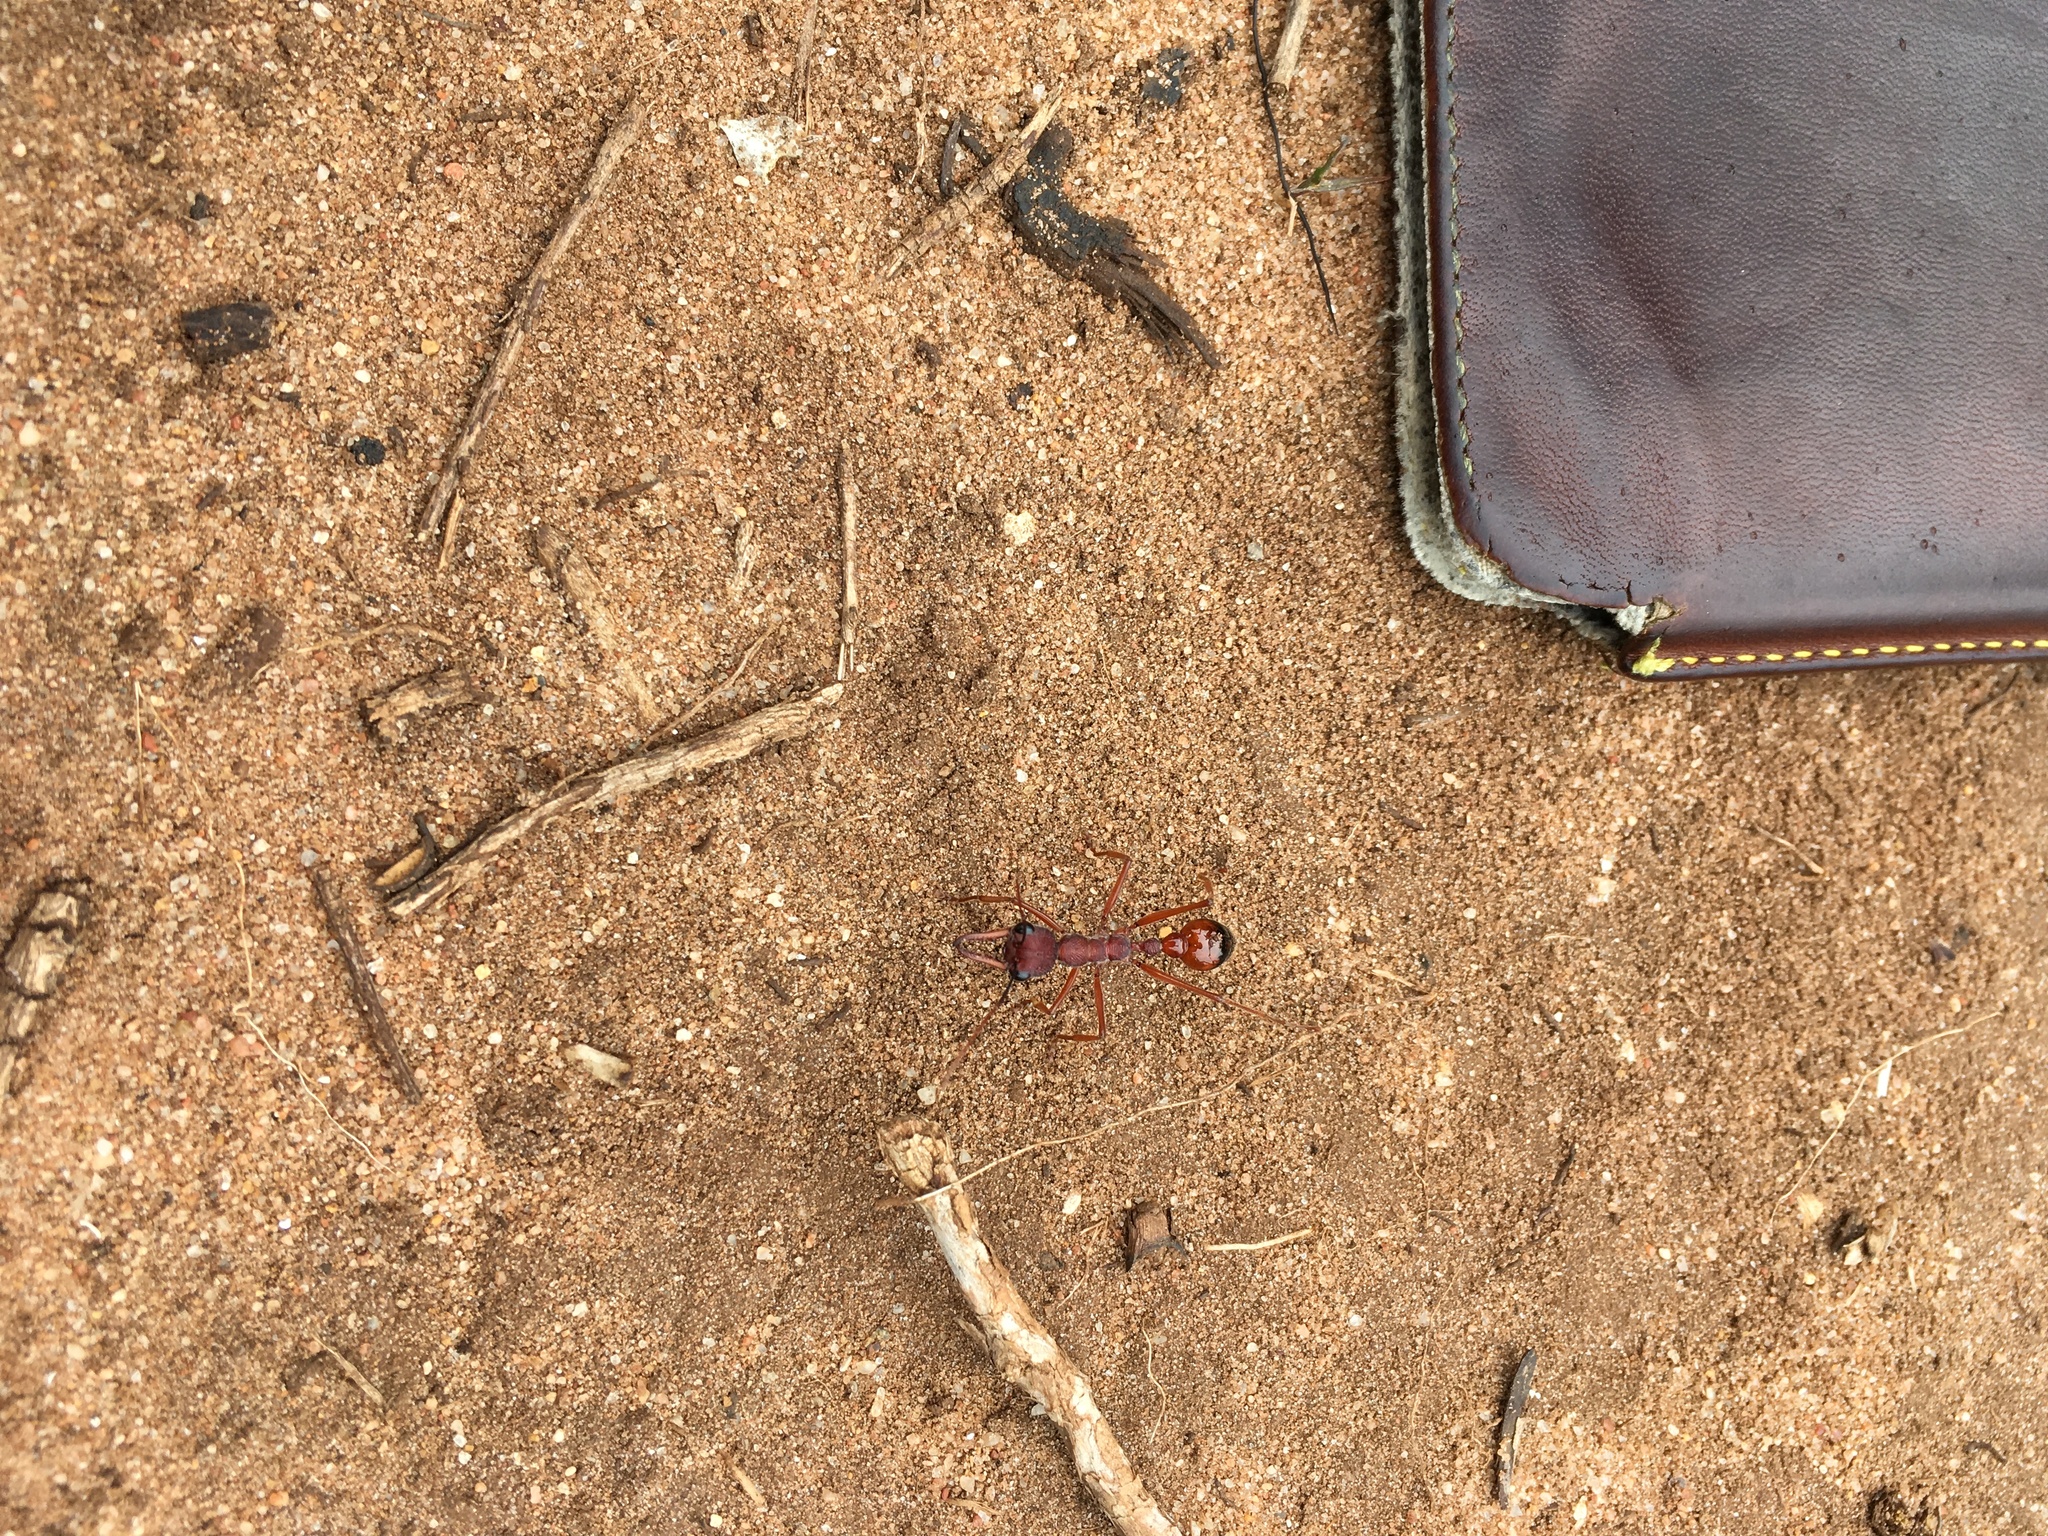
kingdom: Animalia
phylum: Arthropoda
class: Insecta
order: Hymenoptera
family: Formicidae
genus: Myrmecia
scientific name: Myrmecia nigriscapa
